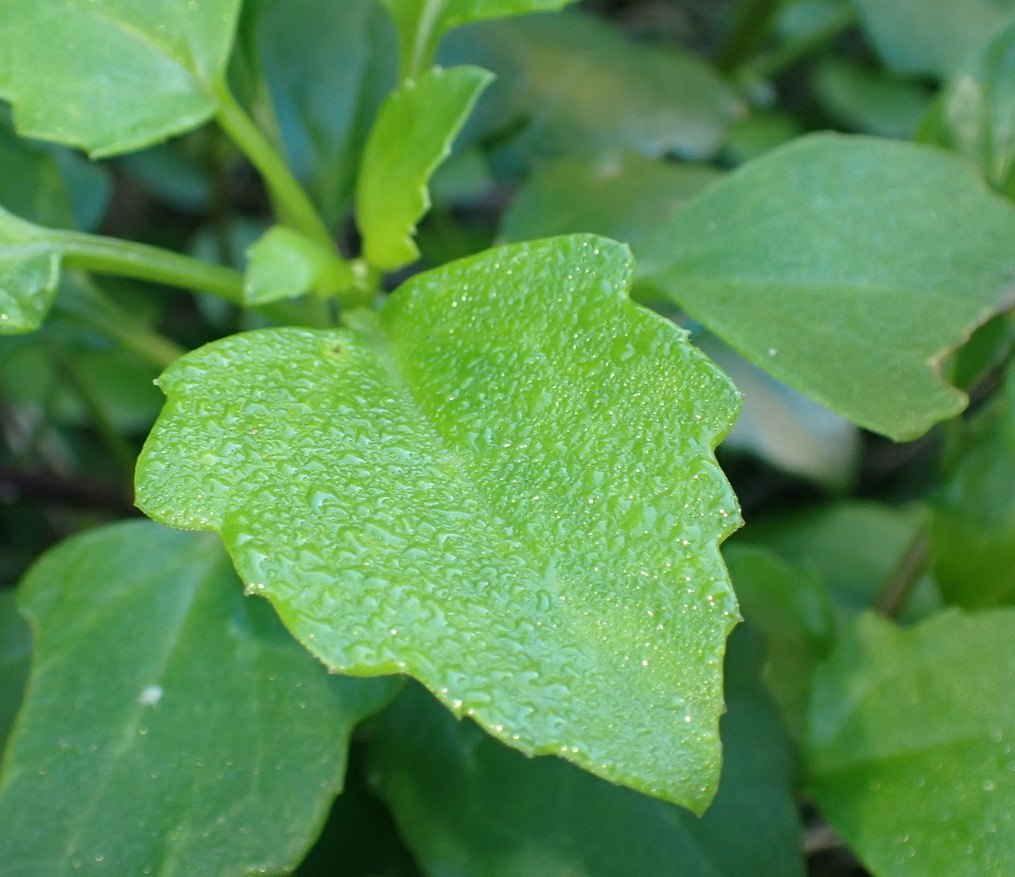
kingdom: Plantae
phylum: Tracheophyta
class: Magnoliopsida
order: Asterales
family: Asteraceae
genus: Senecio
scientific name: Senecio angulatus
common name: Climbing groundsel
